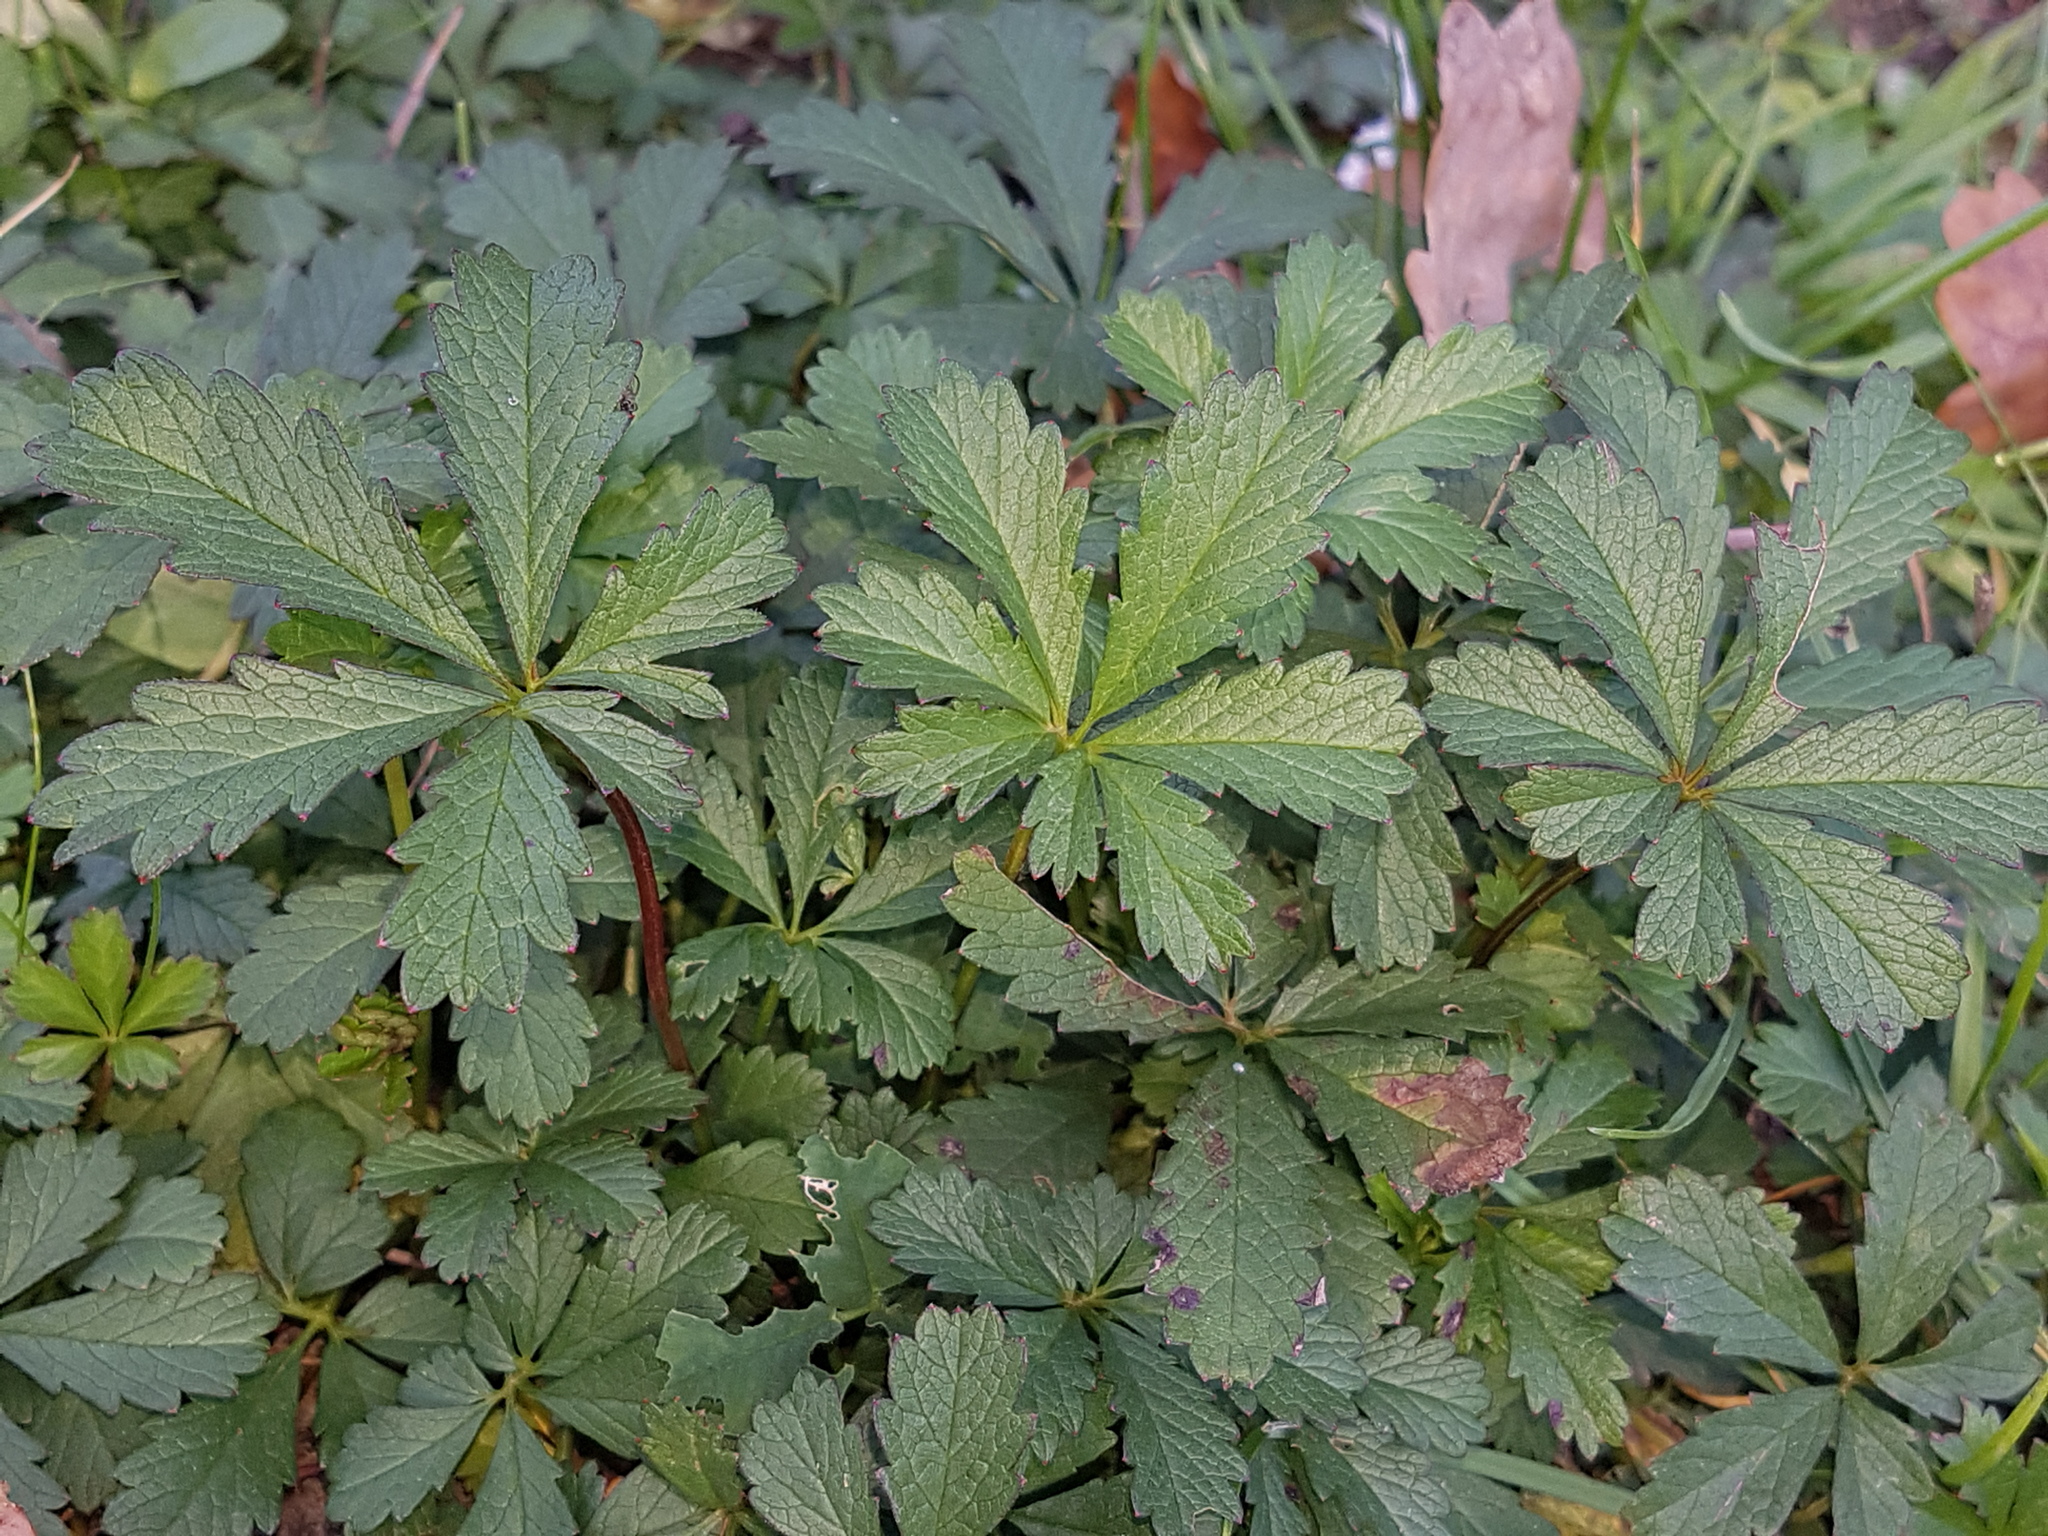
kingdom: Plantae
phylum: Tracheophyta
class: Magnoliopsida
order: Rosales
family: Rosaceae
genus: Potentilla
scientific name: Potentilla reptans
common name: Creeping cinquefoil
